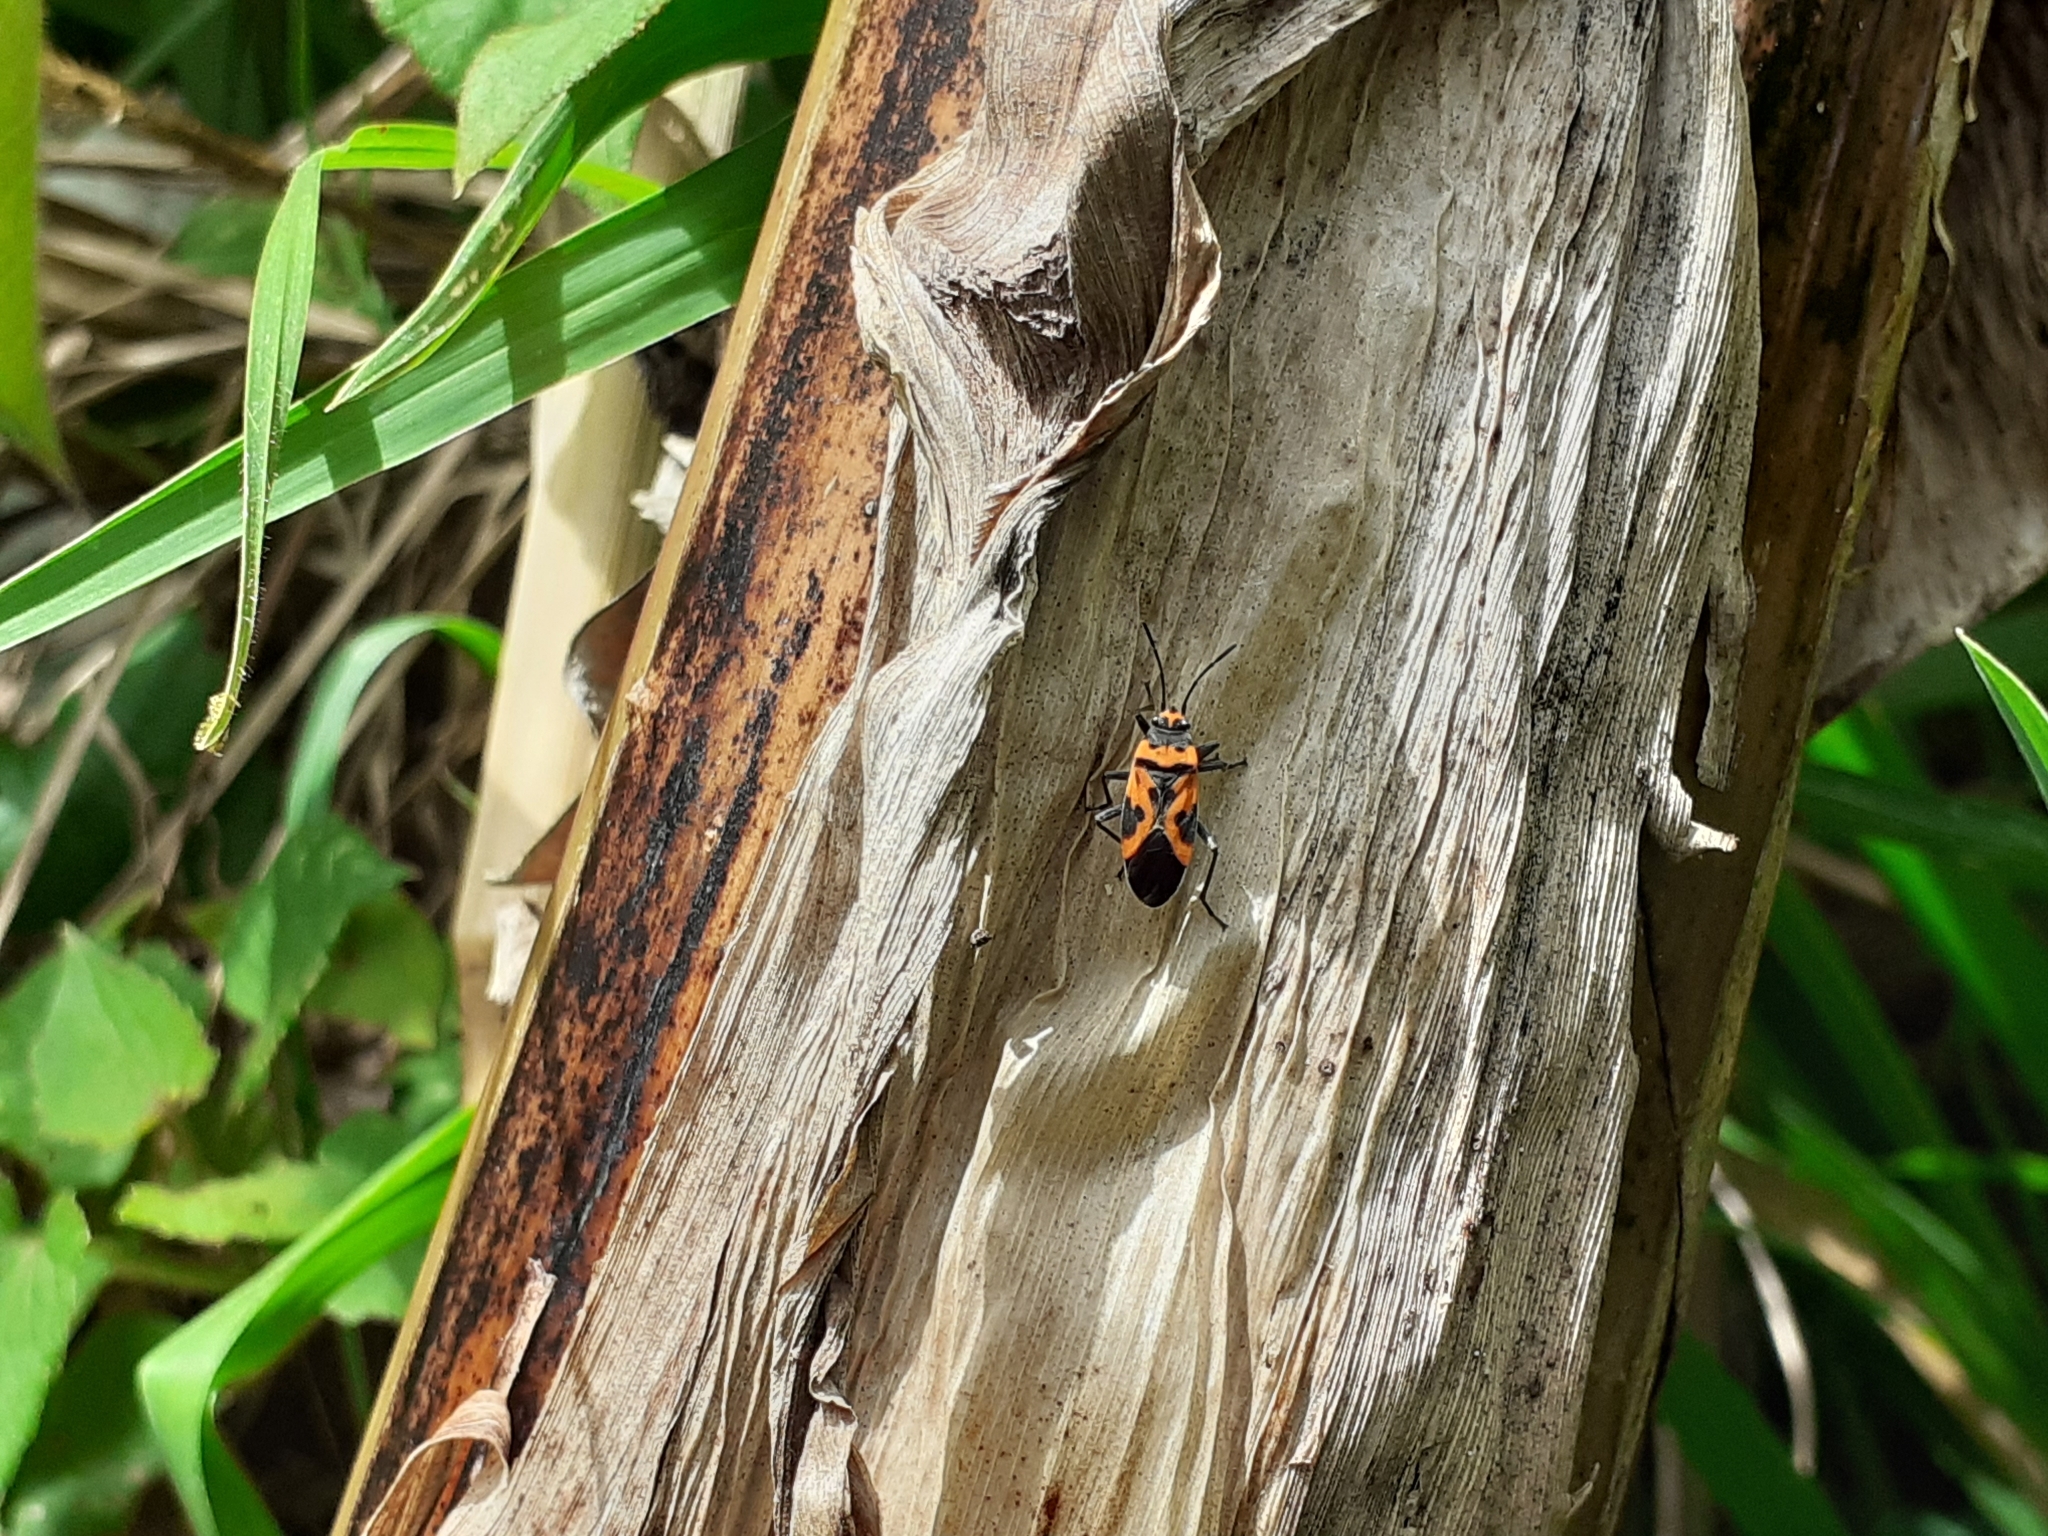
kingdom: Animalia
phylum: Arthropoda
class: Insecta
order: Hemiptera
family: Lygaeidae
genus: Lygaeus
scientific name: Lygaeus ashlocki
